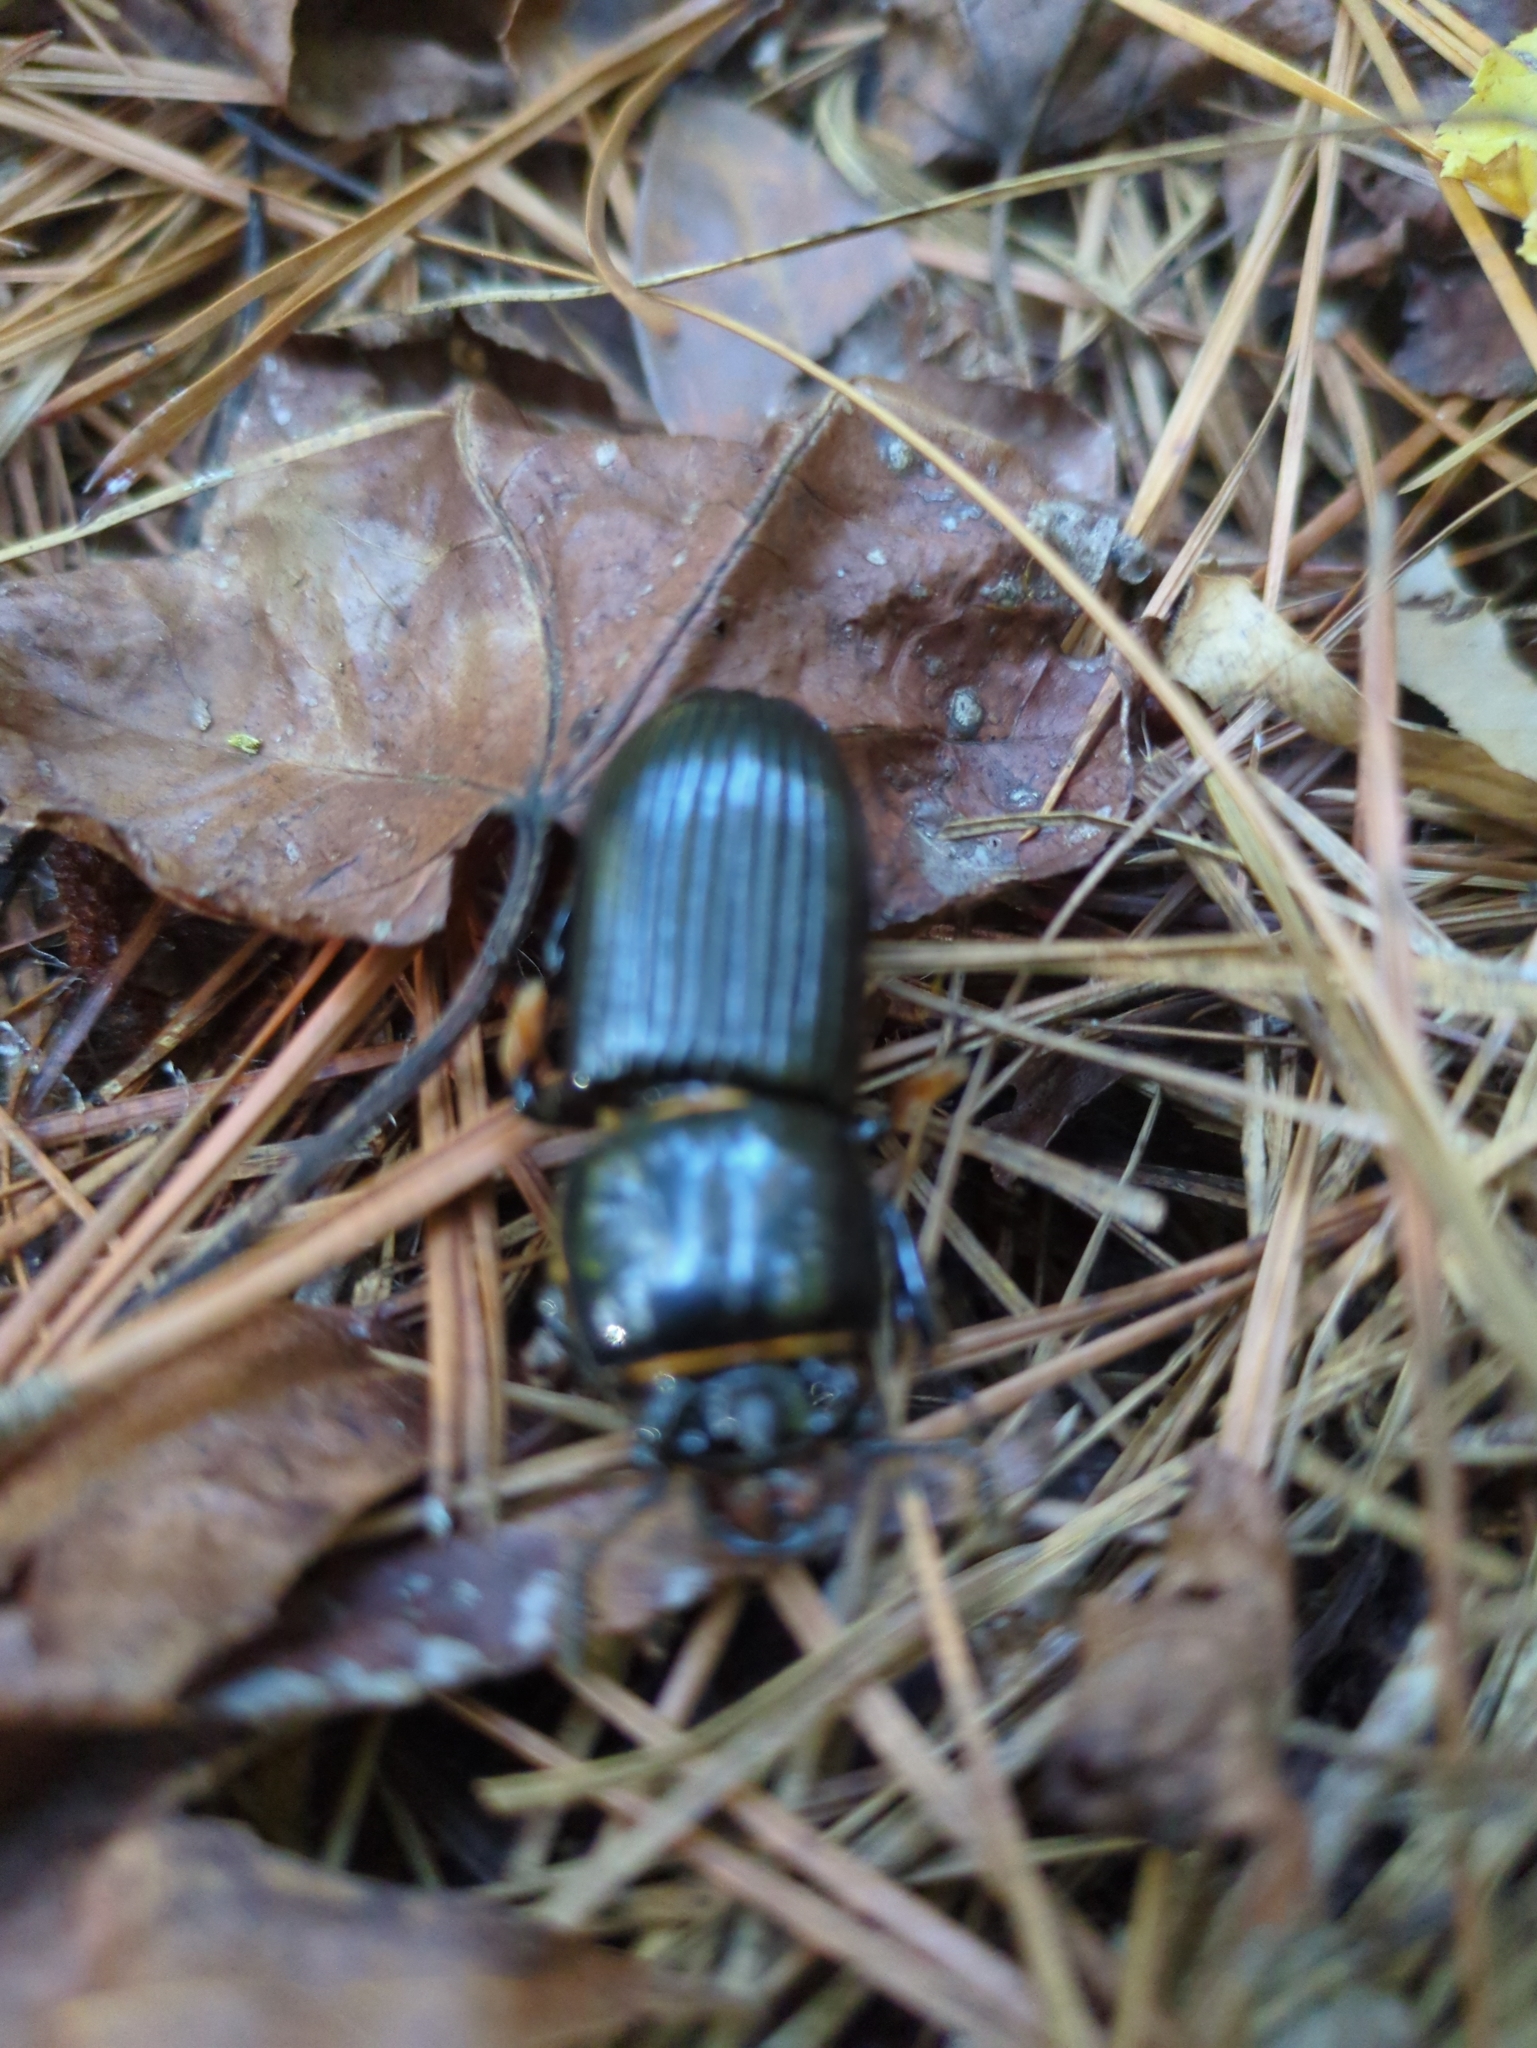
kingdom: Animalia
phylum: Arthropoda
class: Insecta
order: Coleoptera
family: Passalidae
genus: Odontotaenius
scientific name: Odontotaenius disjunctus
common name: Patent leather beetle
